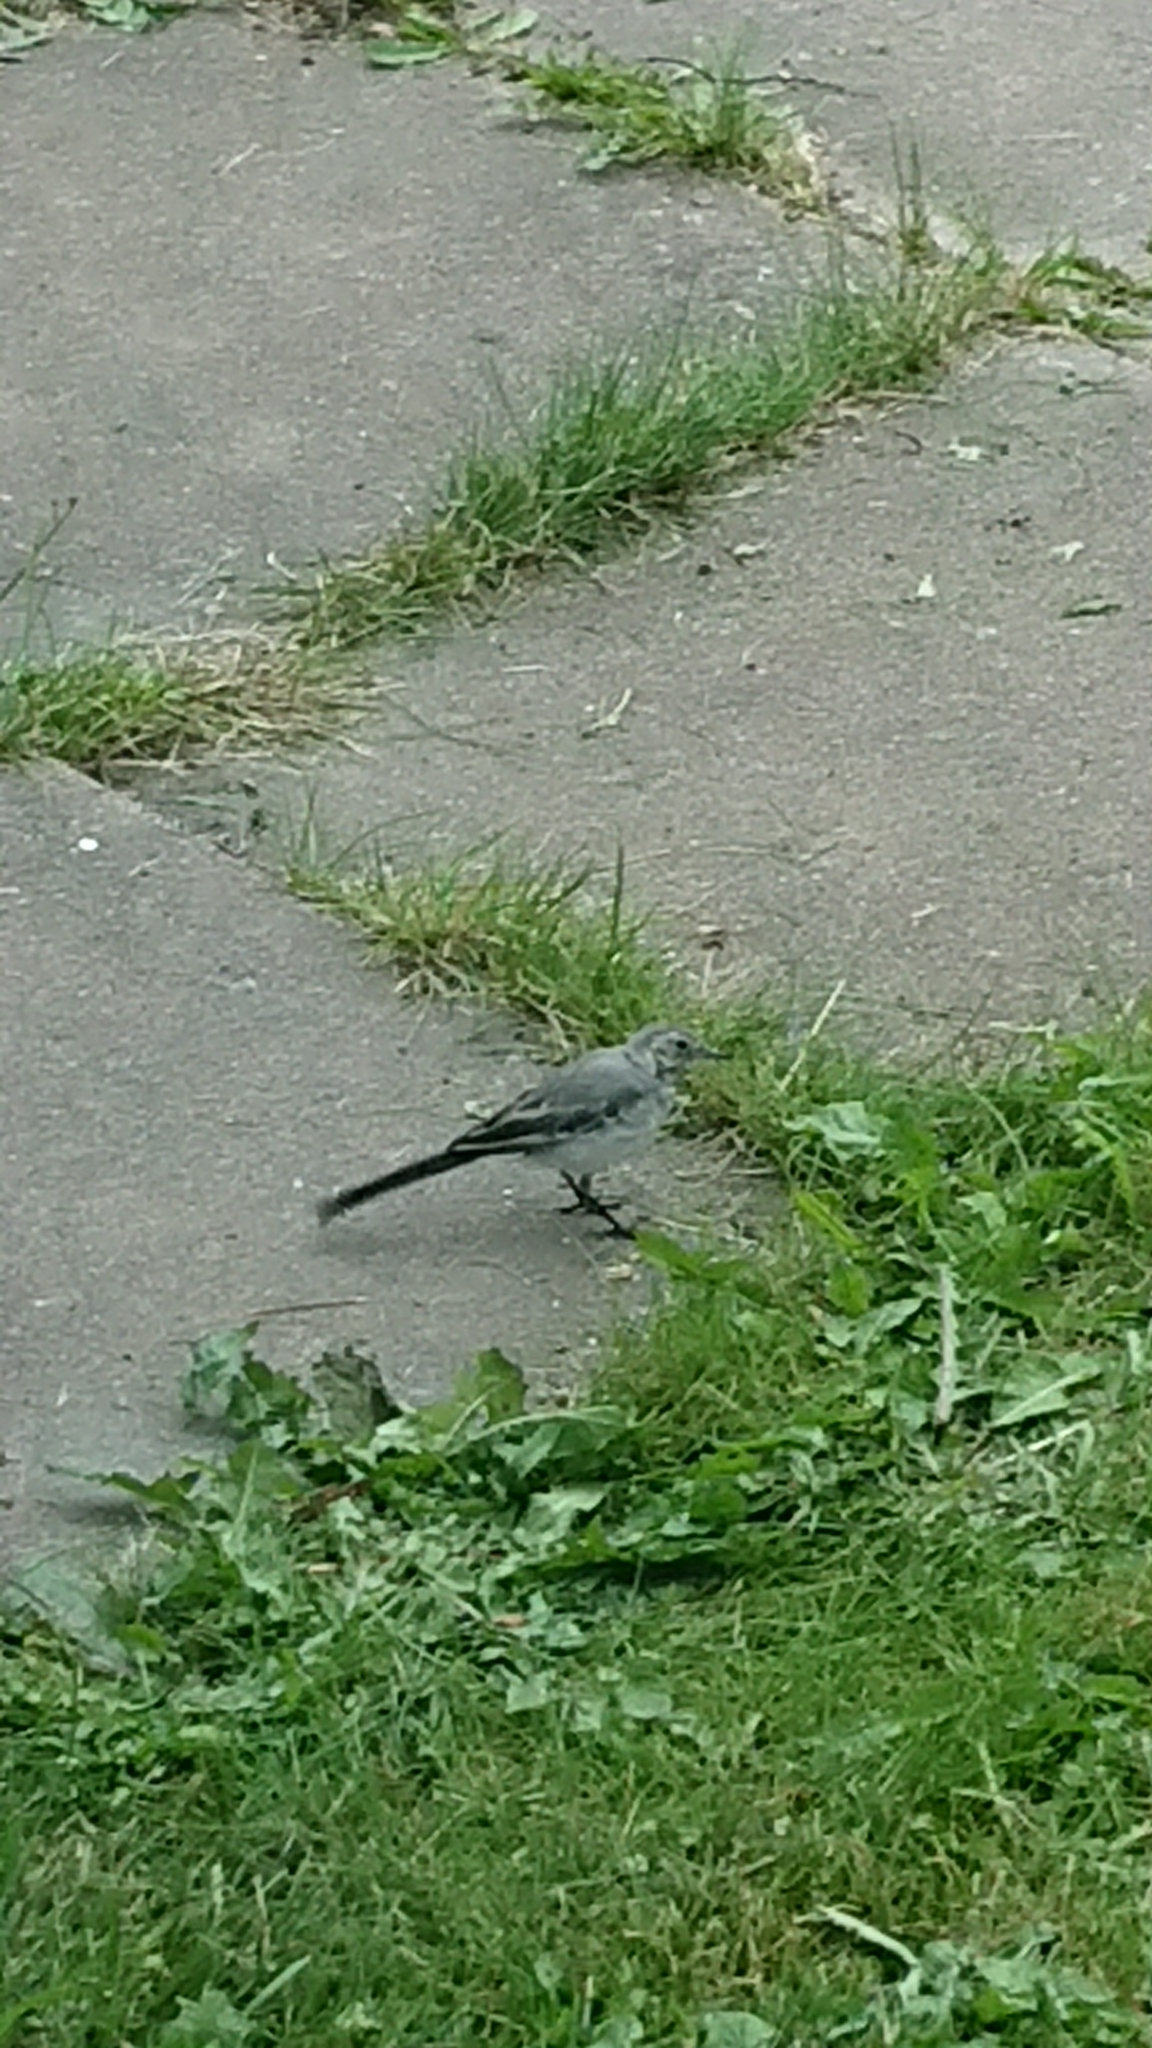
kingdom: Animalia
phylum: Chordata
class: Aves
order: Passeriformes
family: Motacillidae
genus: Motacilla
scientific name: Motacilla alba
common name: White wagtail
